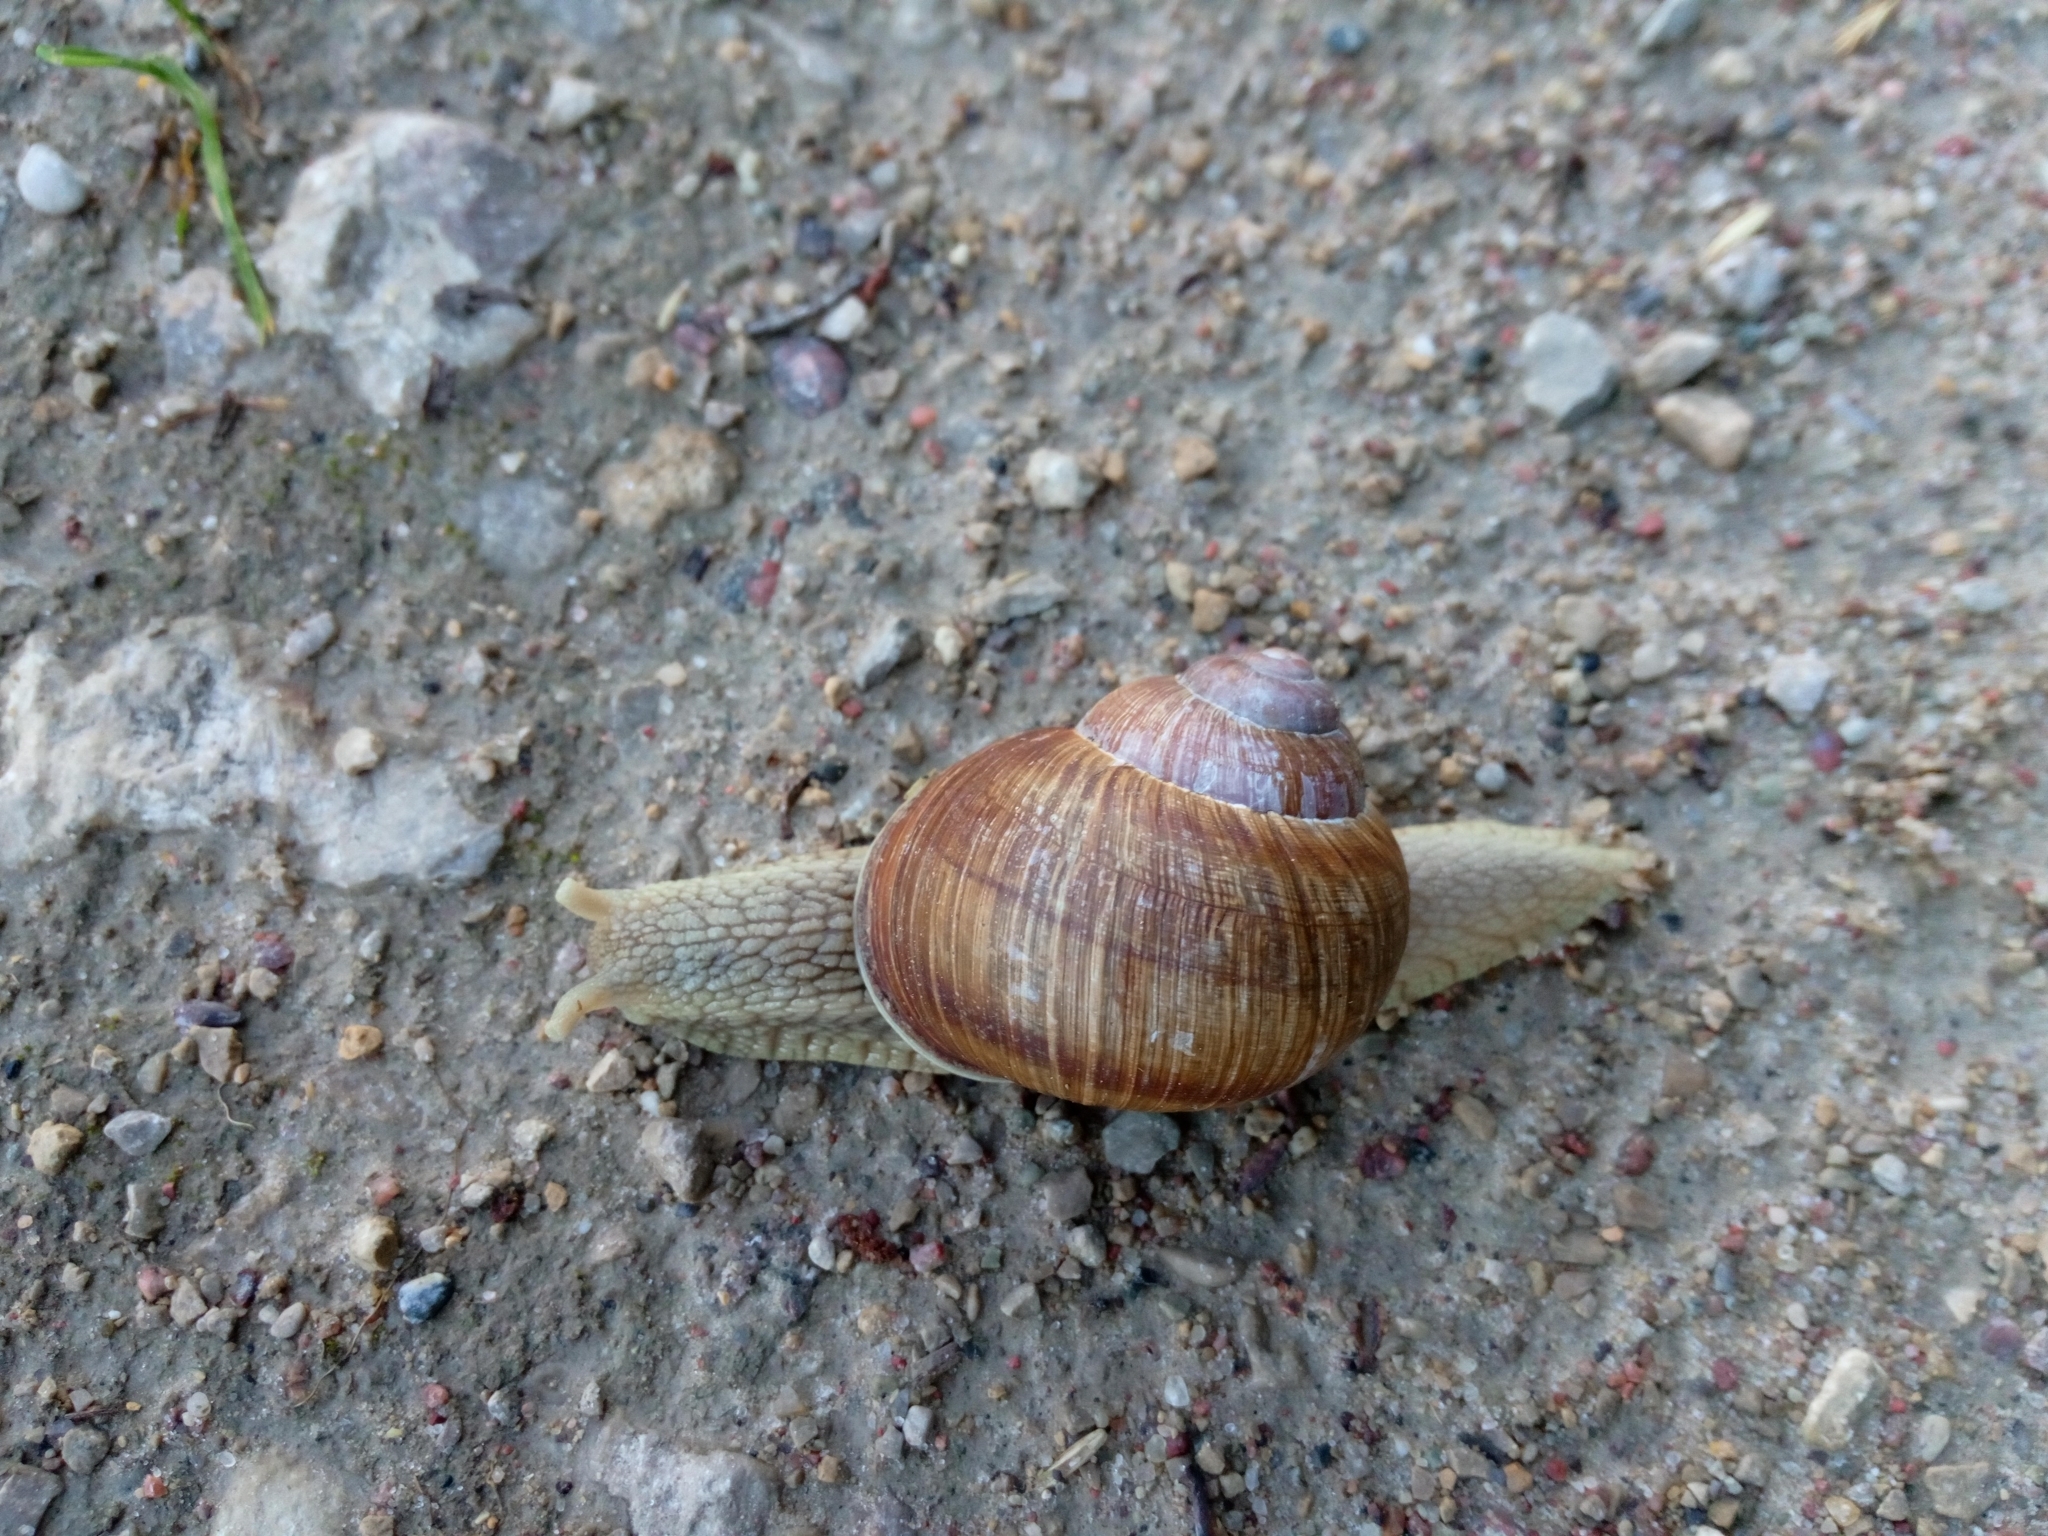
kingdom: Animalia
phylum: Mollusca
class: Gastropoda
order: Stylommatophora
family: Helicidae
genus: Helix
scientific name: Helix pomatia
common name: Roman snail
